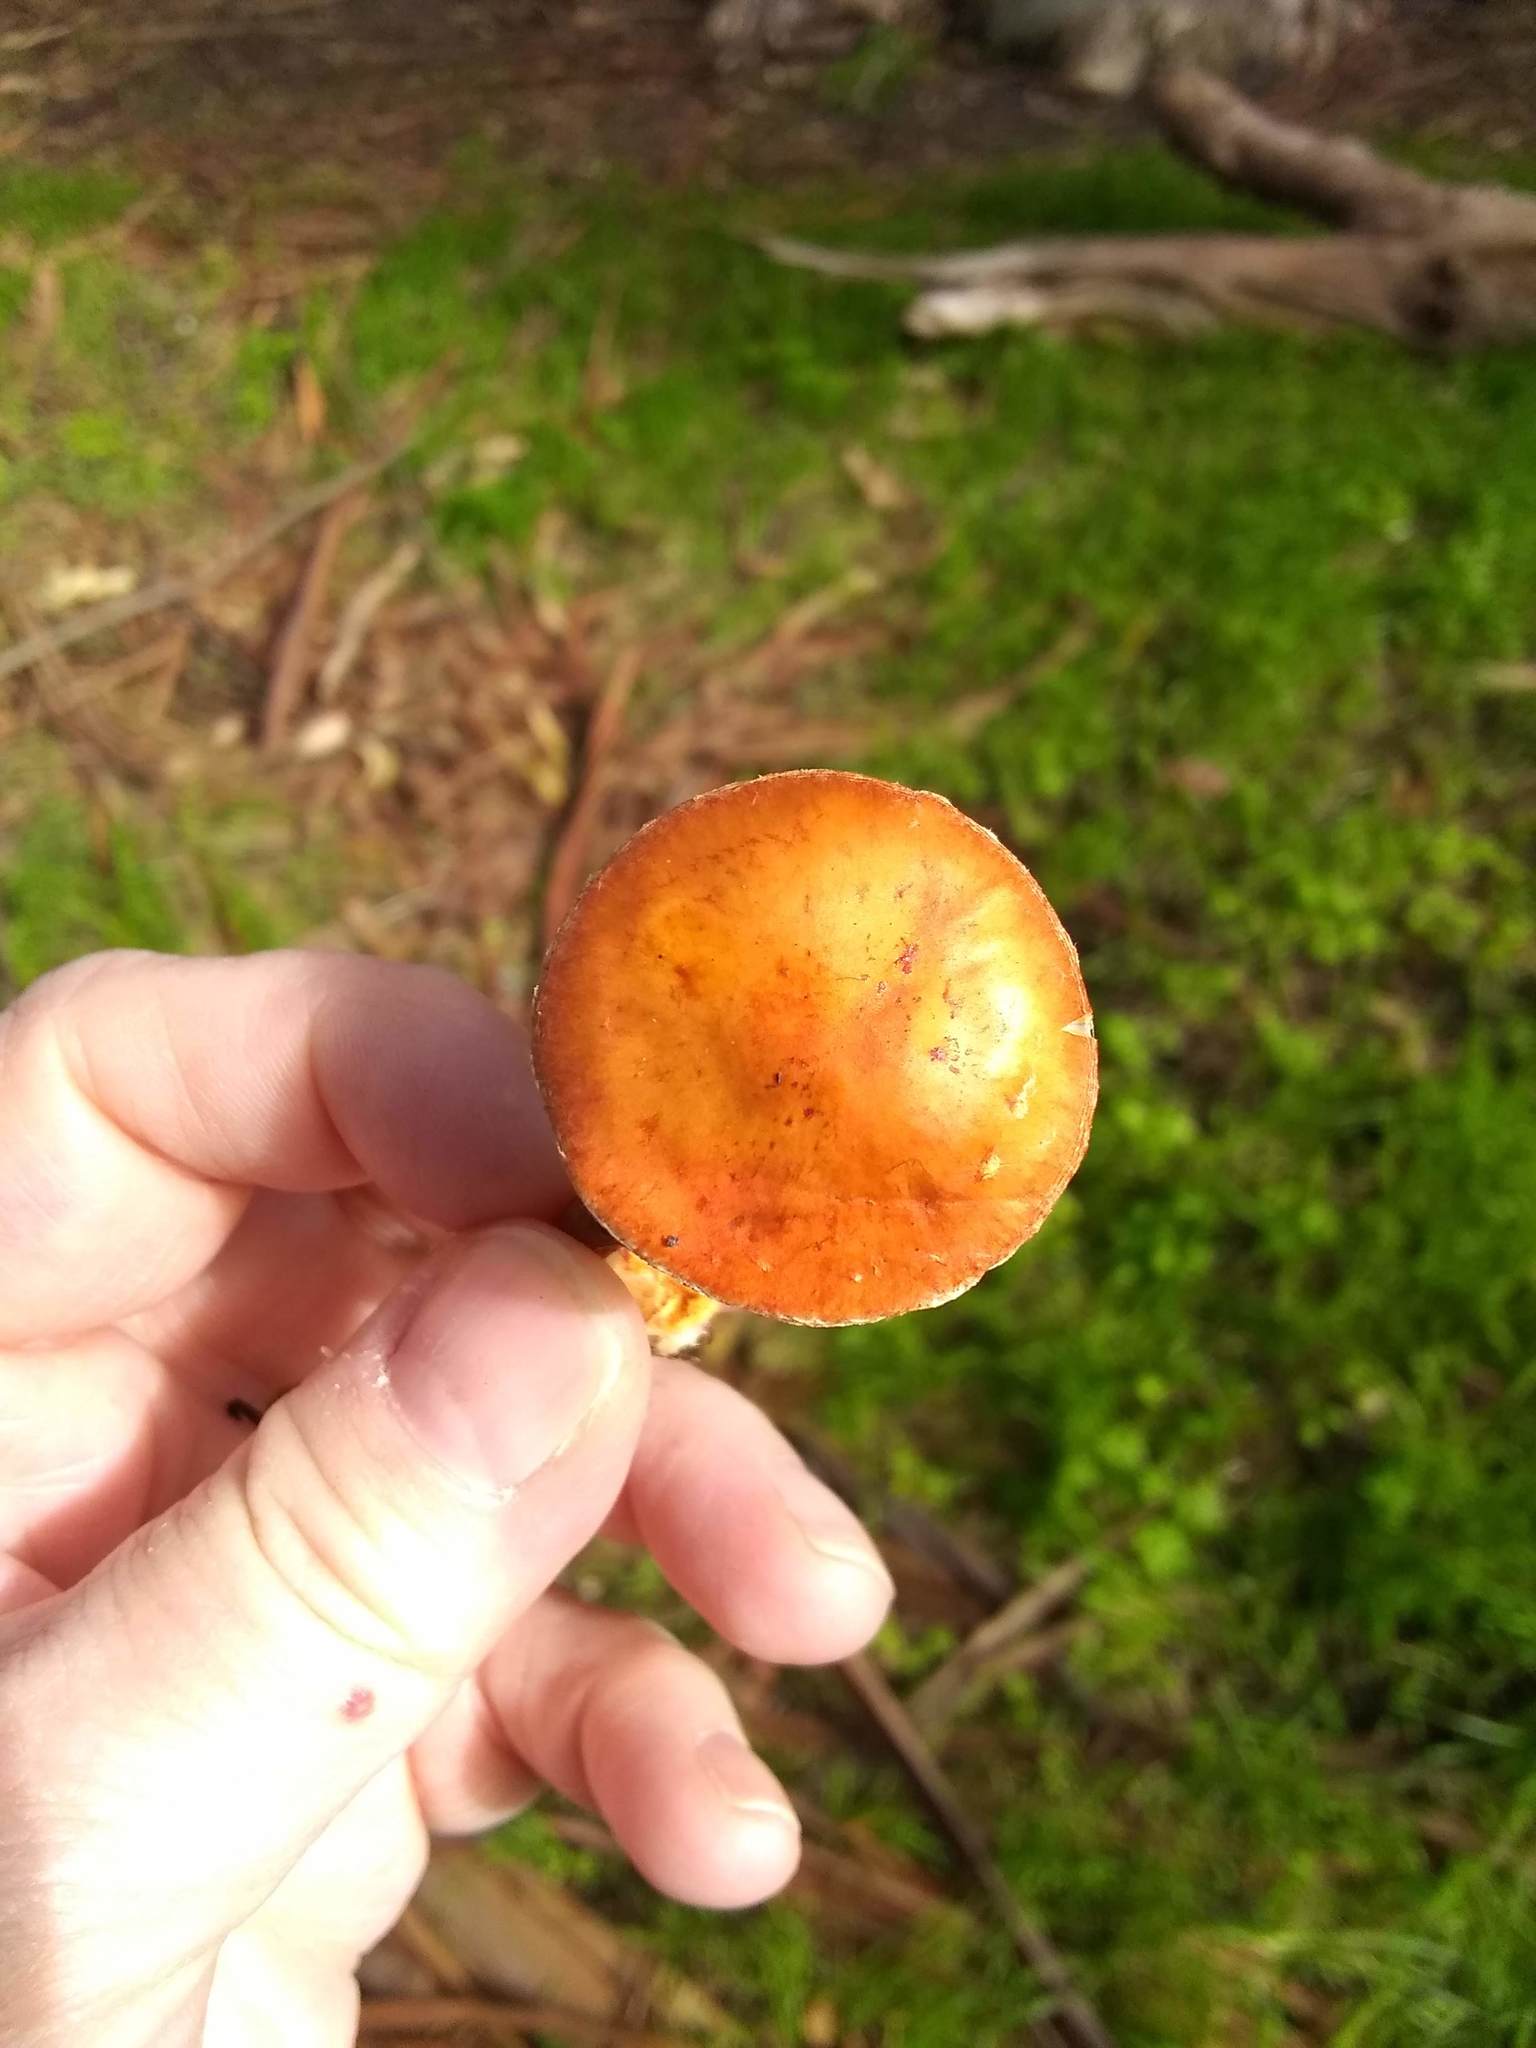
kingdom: Fungi
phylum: Basidiomycota
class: Agaricomycetes
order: Agaricales
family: Strophariaceae
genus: Leratiomyces
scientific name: Leratiomyces ceres
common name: Redlead roundhead
